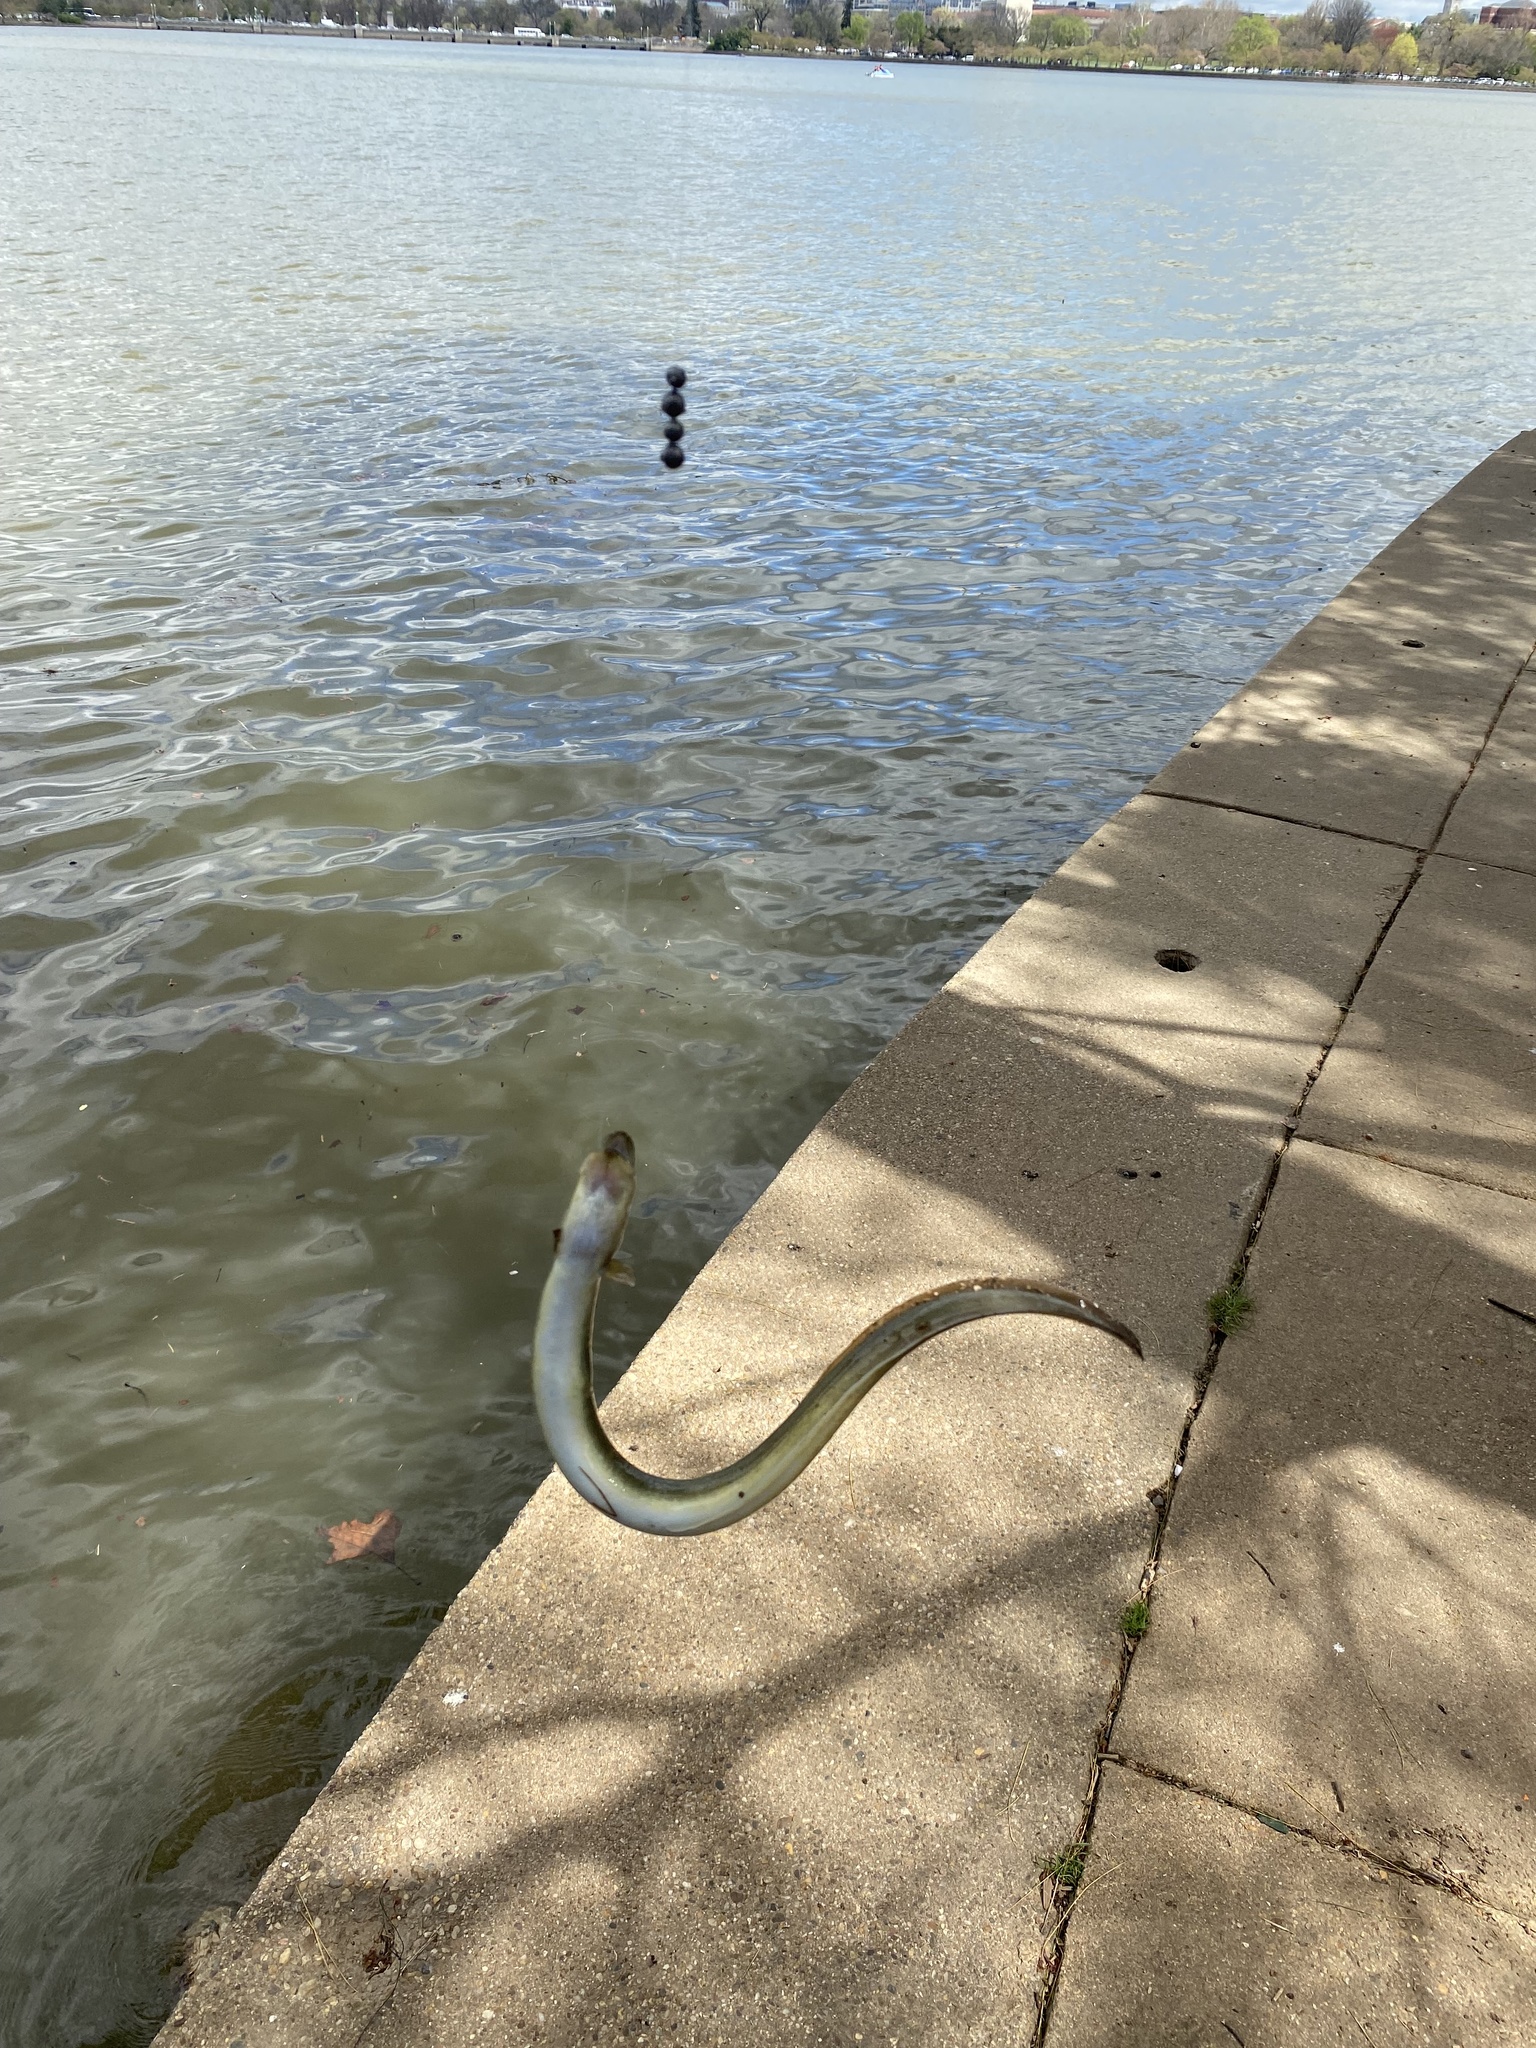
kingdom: Animalia
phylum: Chordata
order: Anguilliformes
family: Anguillidae
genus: Anguilla
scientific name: Anguilla rostrata
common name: American eel
